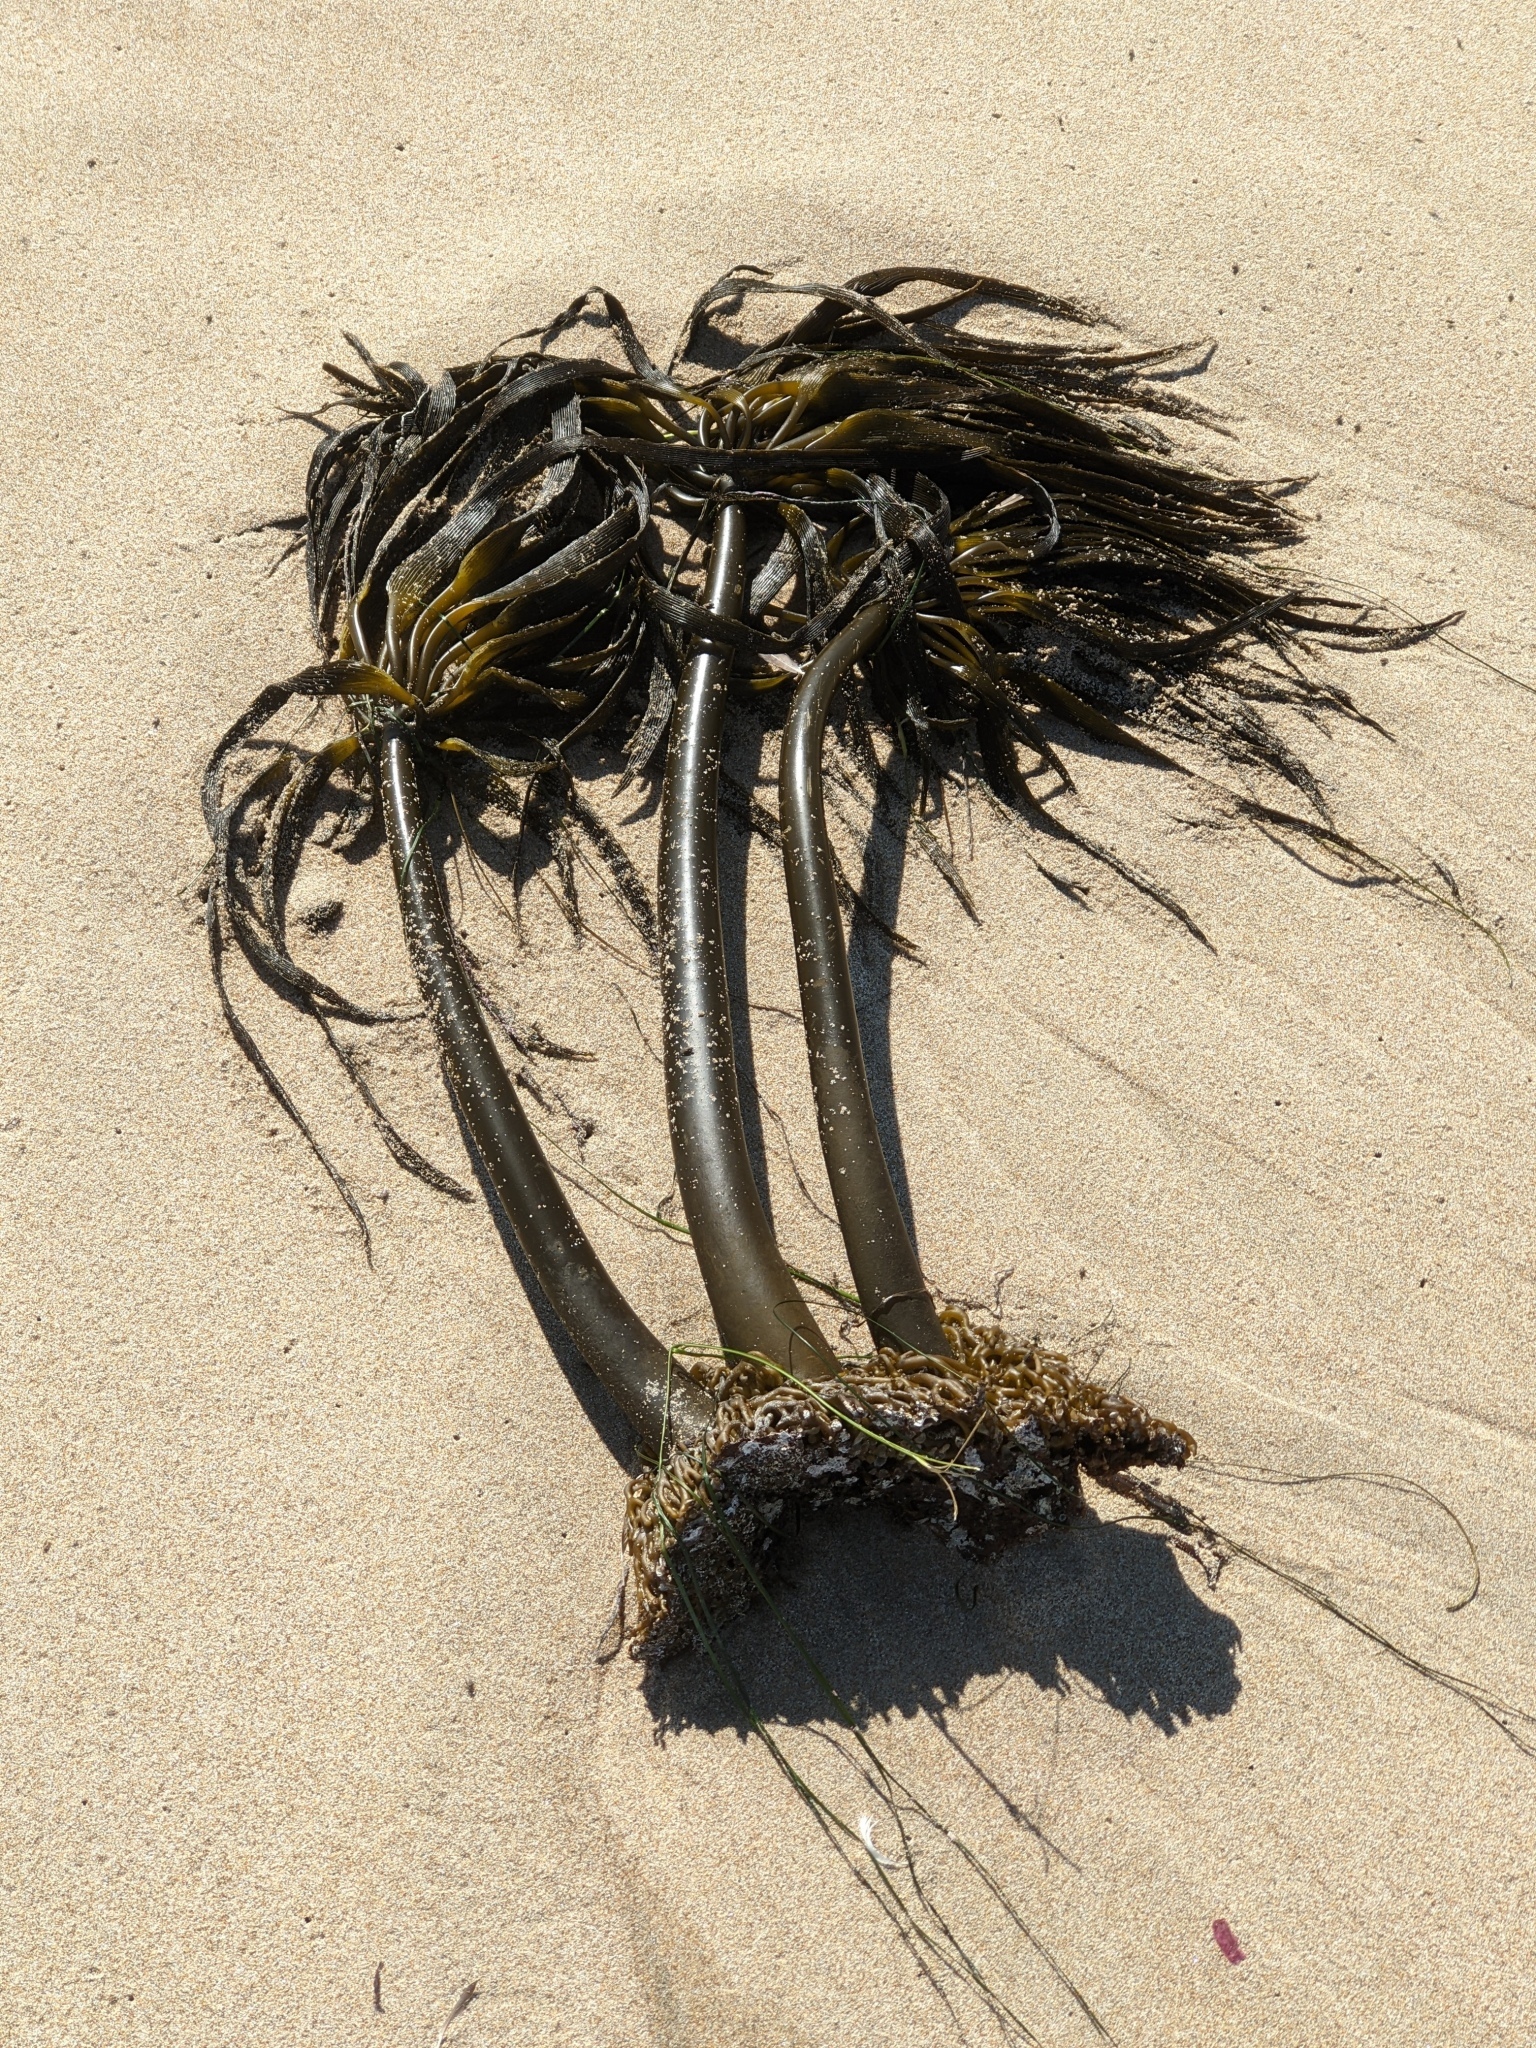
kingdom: Chromista
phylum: Ochrophyta
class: Phaeophyceae
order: Laminariales
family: Laminariaceae
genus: Postelsia
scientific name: Postelsia palmiformis
